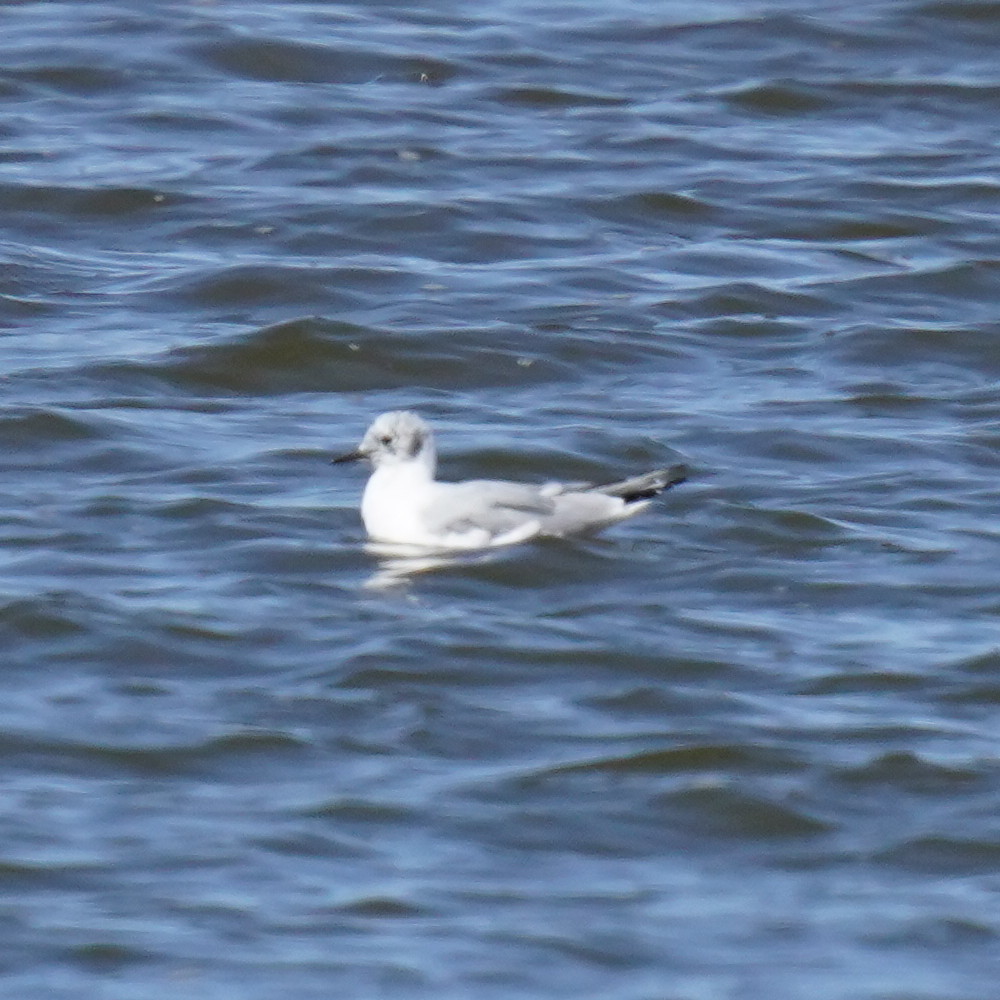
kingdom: Animalia
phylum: Chordata
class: Aves
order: Charadriiformes
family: Laridae
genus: Chroicocephalus
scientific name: Chroicocephalus philadelphia
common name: Bonaparte's gull
